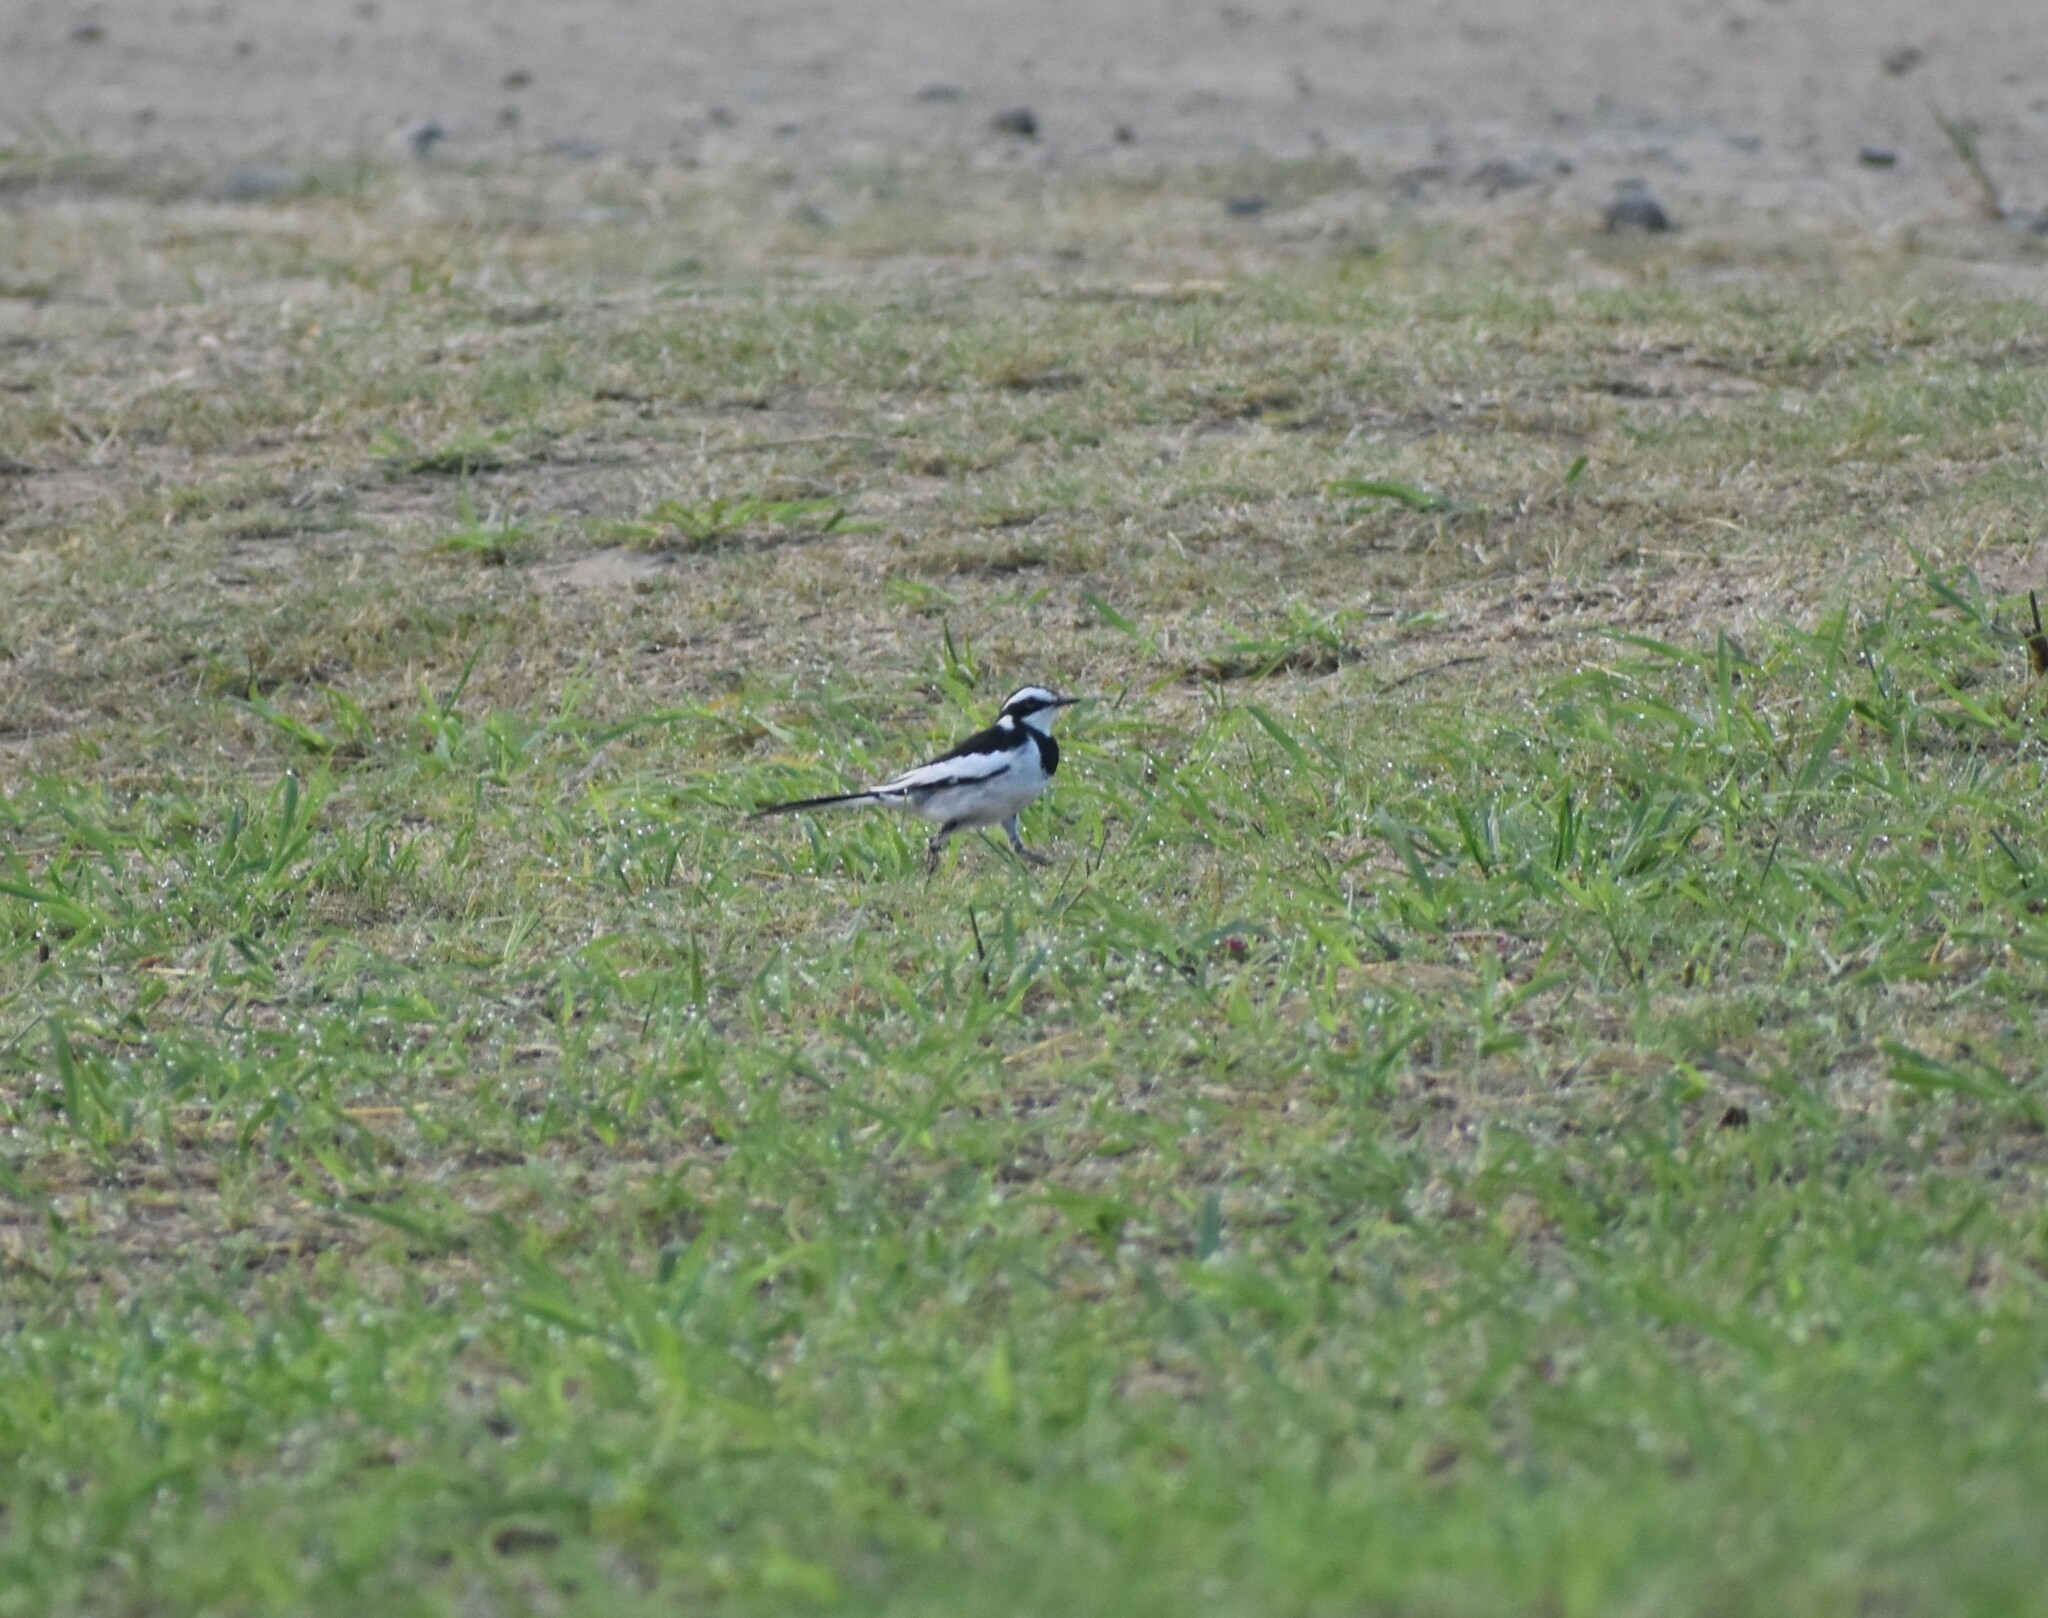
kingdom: Animalia
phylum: Chordata
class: Aves
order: Passeriformes
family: Motacillidae
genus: Motacilla
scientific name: Motacilla aguimp
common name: African pied wagtail
